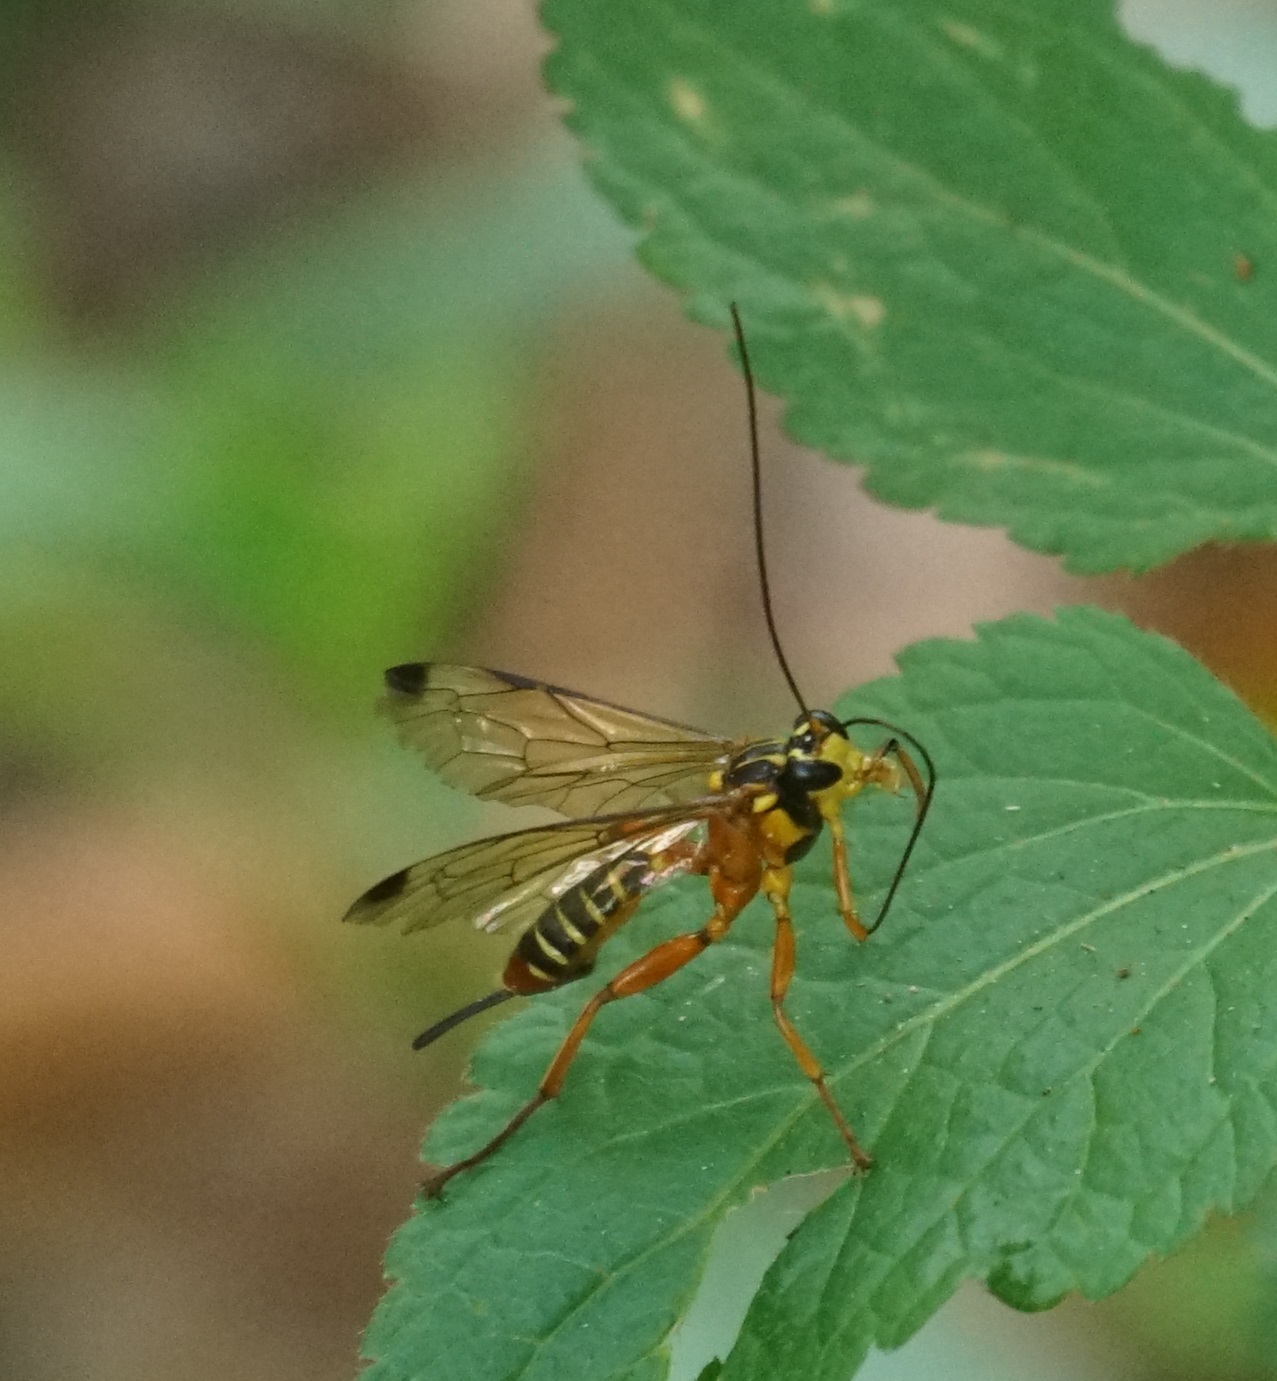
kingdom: Animalia
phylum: Arthropoda
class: Insecta
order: Hymenoptera
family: Ichneumonidae
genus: Echthromorpha
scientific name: Echthromorpha agrestoria
